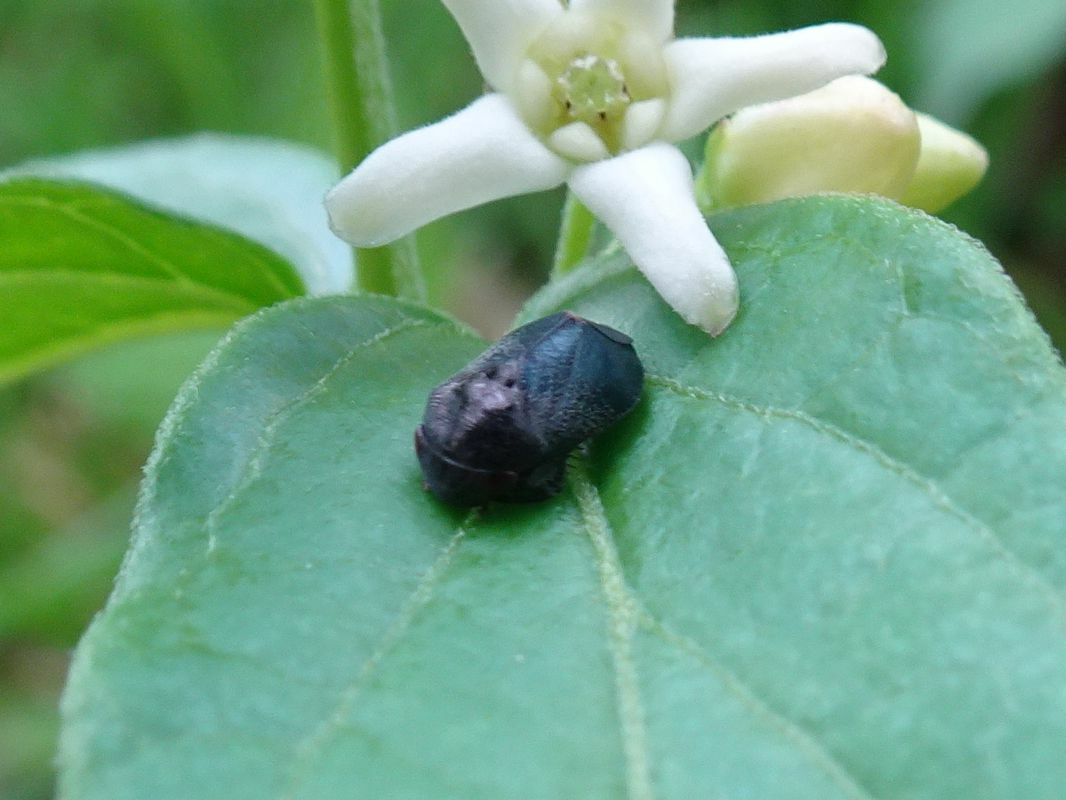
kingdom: Animalia
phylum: Arthropoda
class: Insecta
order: Hemiptera
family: Cicadellidae
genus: Penthimia
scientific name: Penthimia nigra
